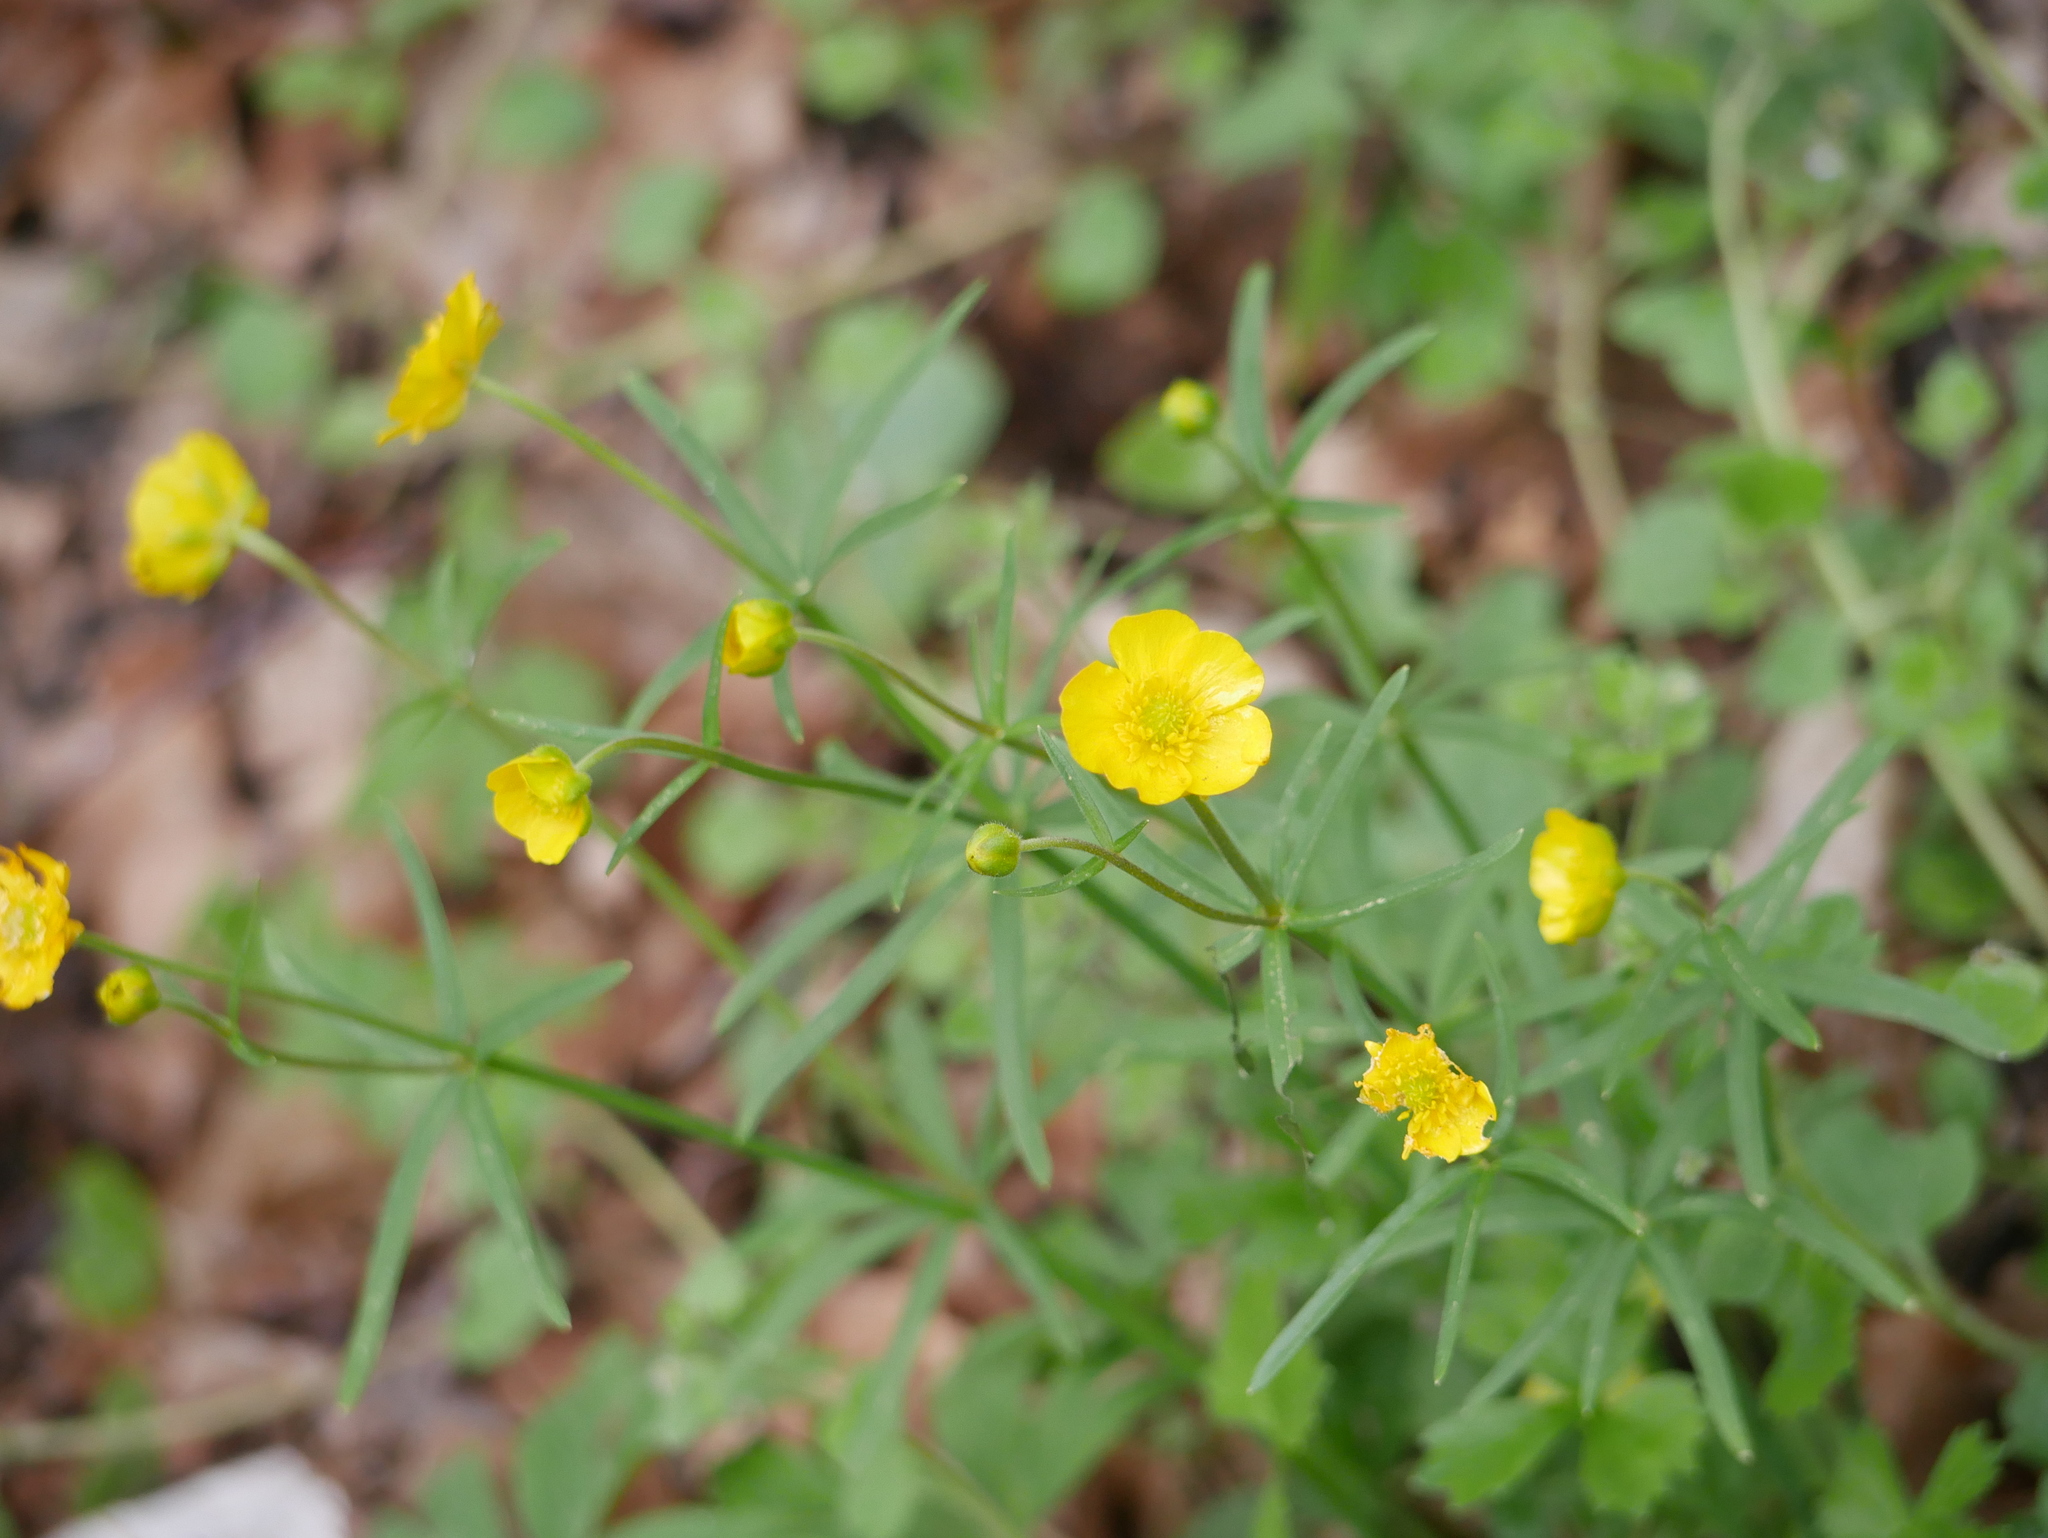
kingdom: Plantae
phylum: Tracheophyta
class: Magnoliopsida
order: Ranunculales
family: Ranunculaceae
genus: Ranunculus
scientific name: Ranunculus auricomus
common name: Goldilocks buttercup
